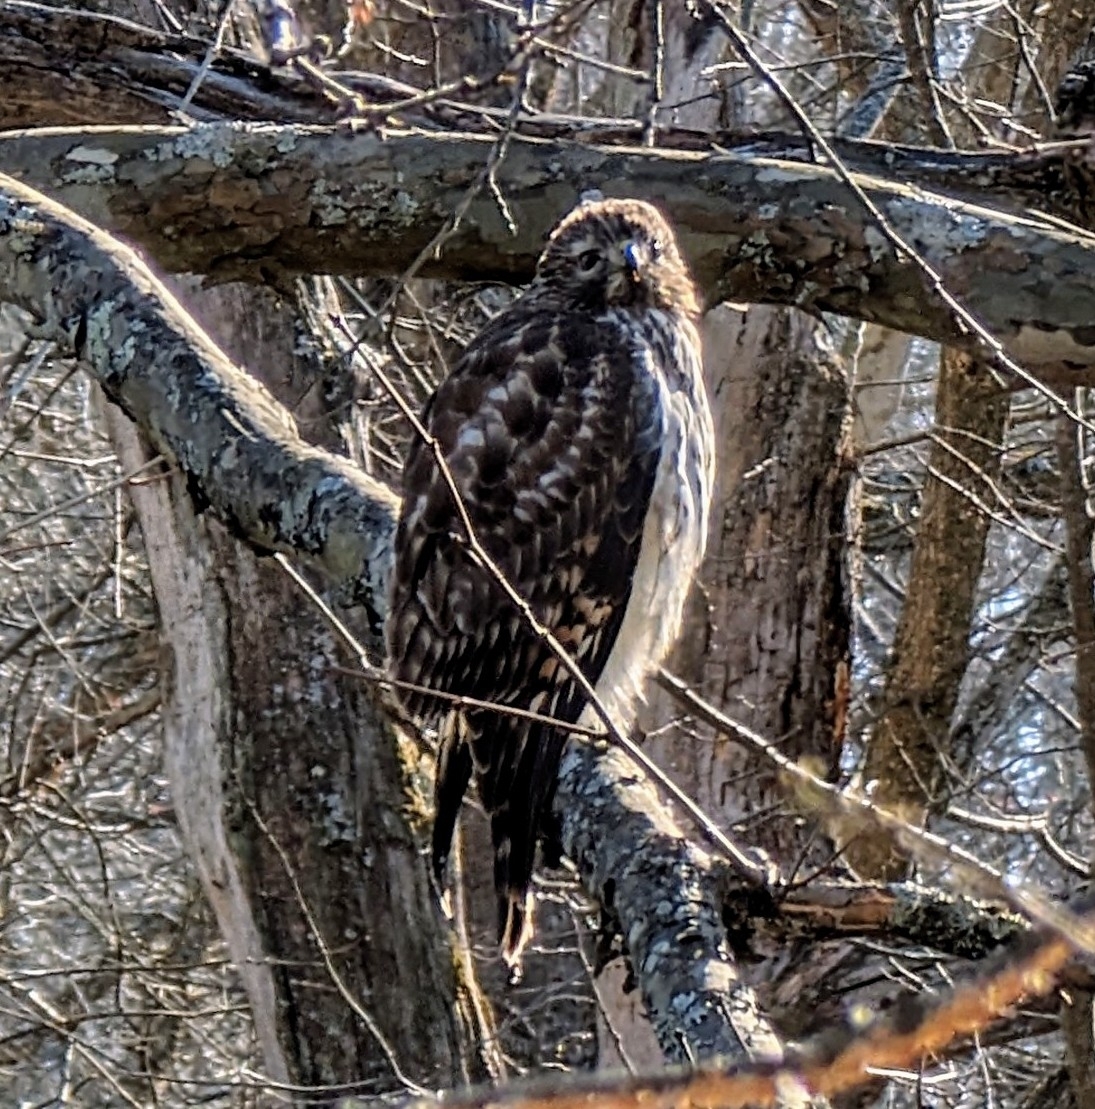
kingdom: Animalia
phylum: Chordata
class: Aves
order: Accipitriformes
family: Accipitridae
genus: Buteo
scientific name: Buteo lineatus
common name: Red-shouldered hawk
